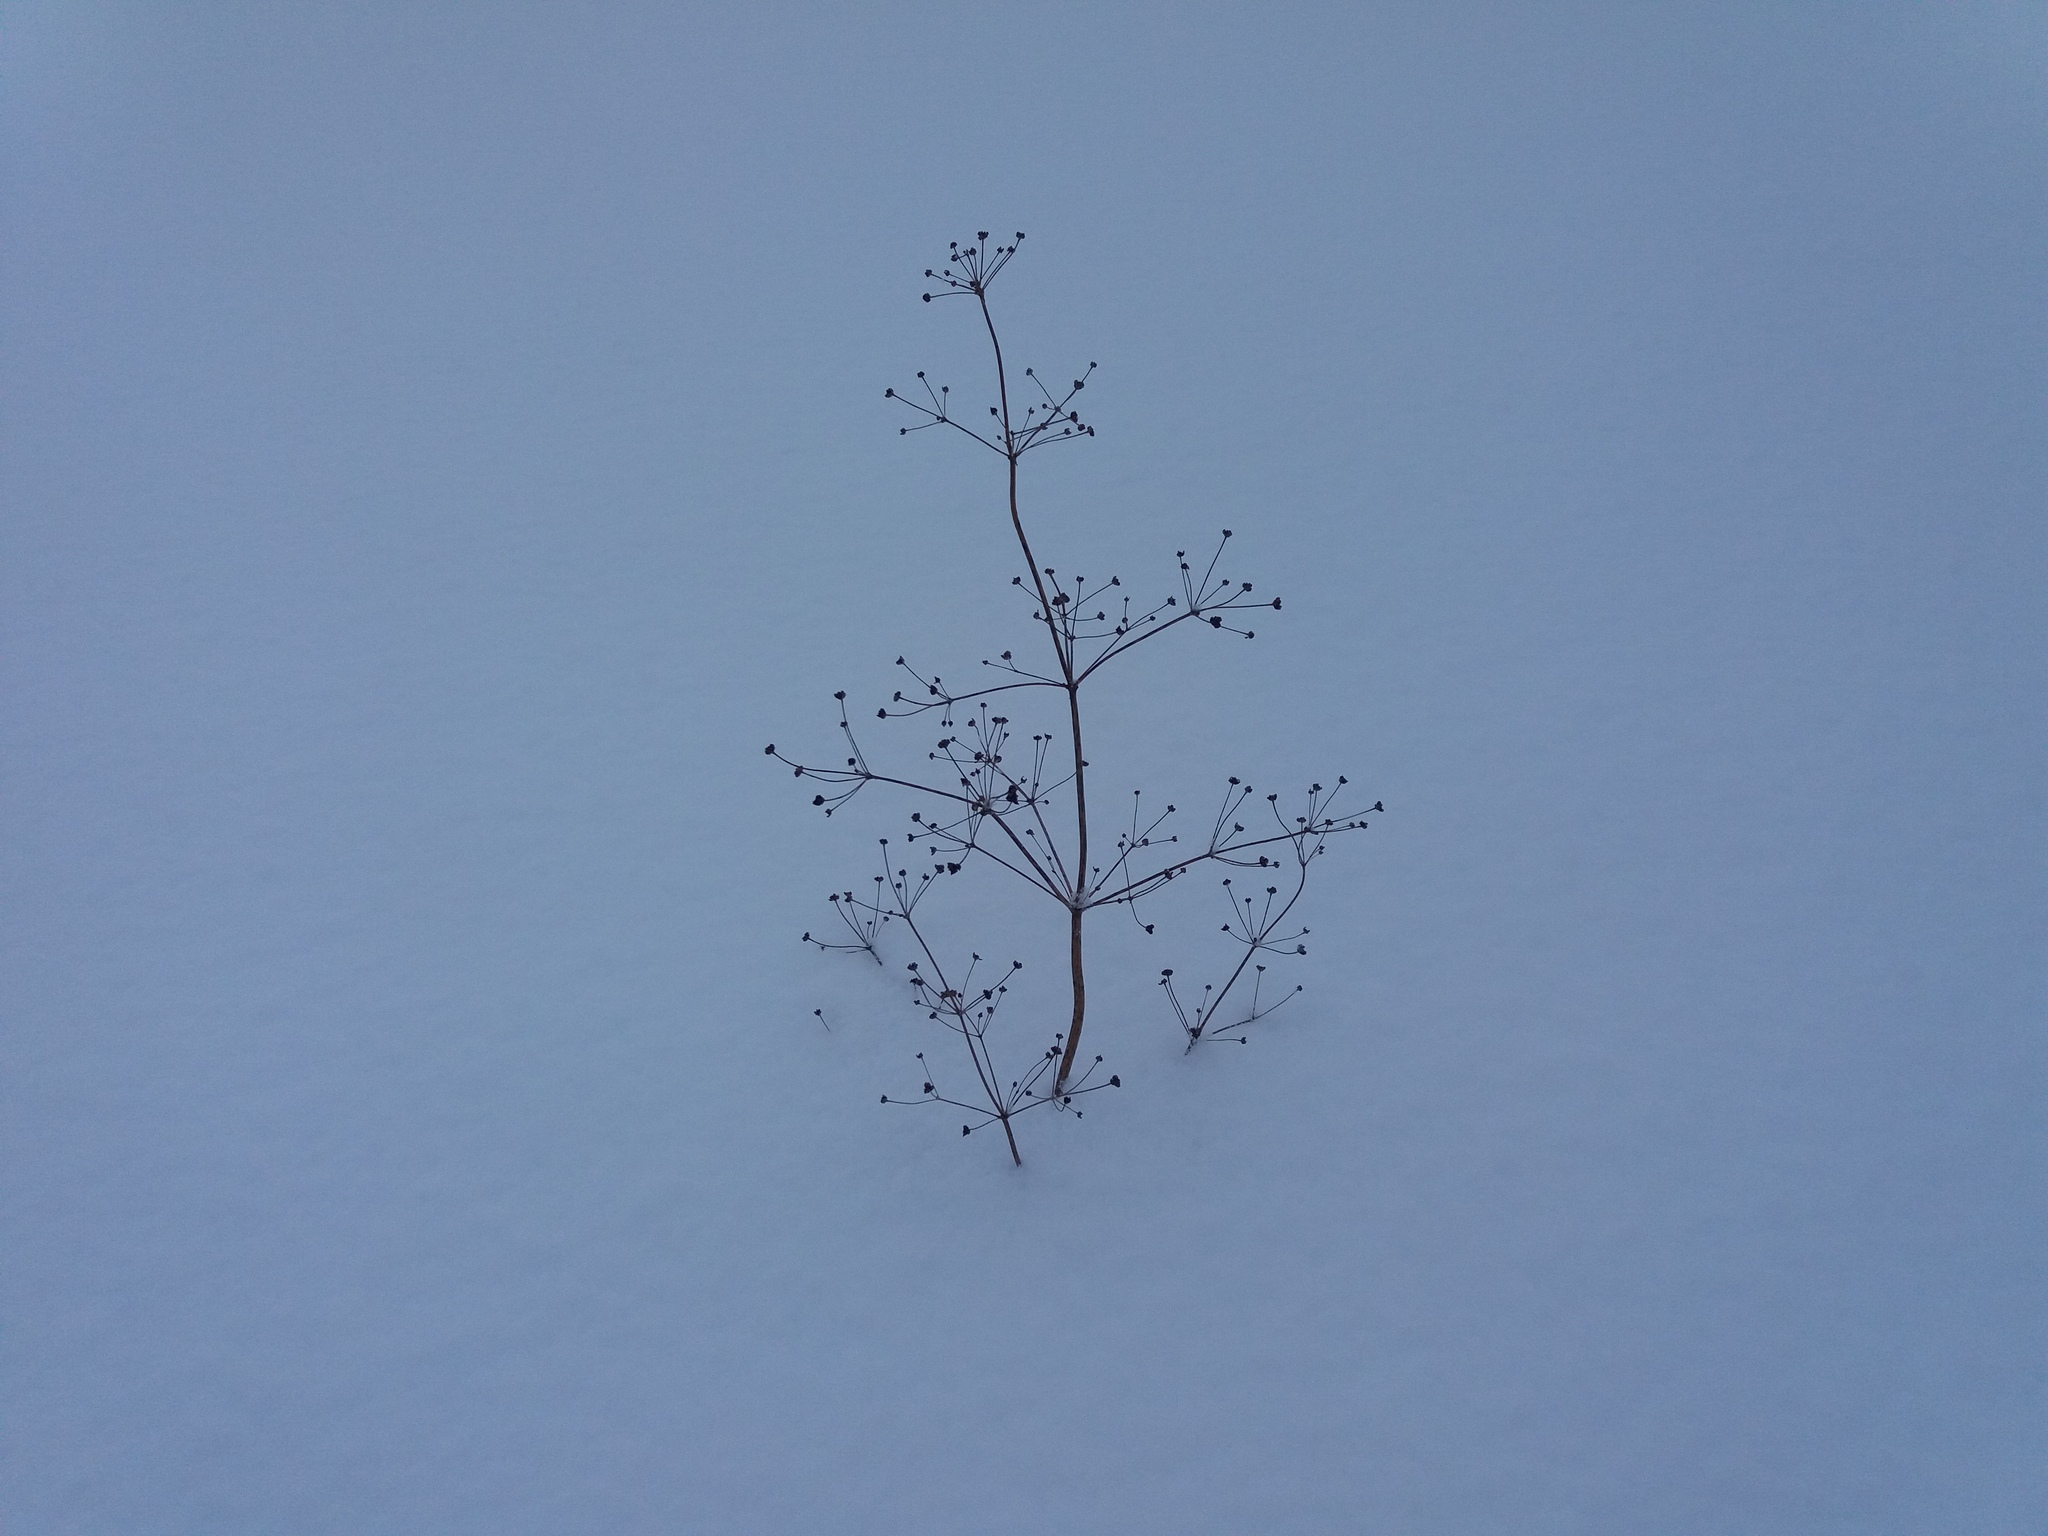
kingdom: Plantae
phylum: Tracheophyta
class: Liliopsida
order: Alismatales
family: Alismataceae
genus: Alisma
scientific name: Alisma plantago-aquatica
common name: Water-plantain
